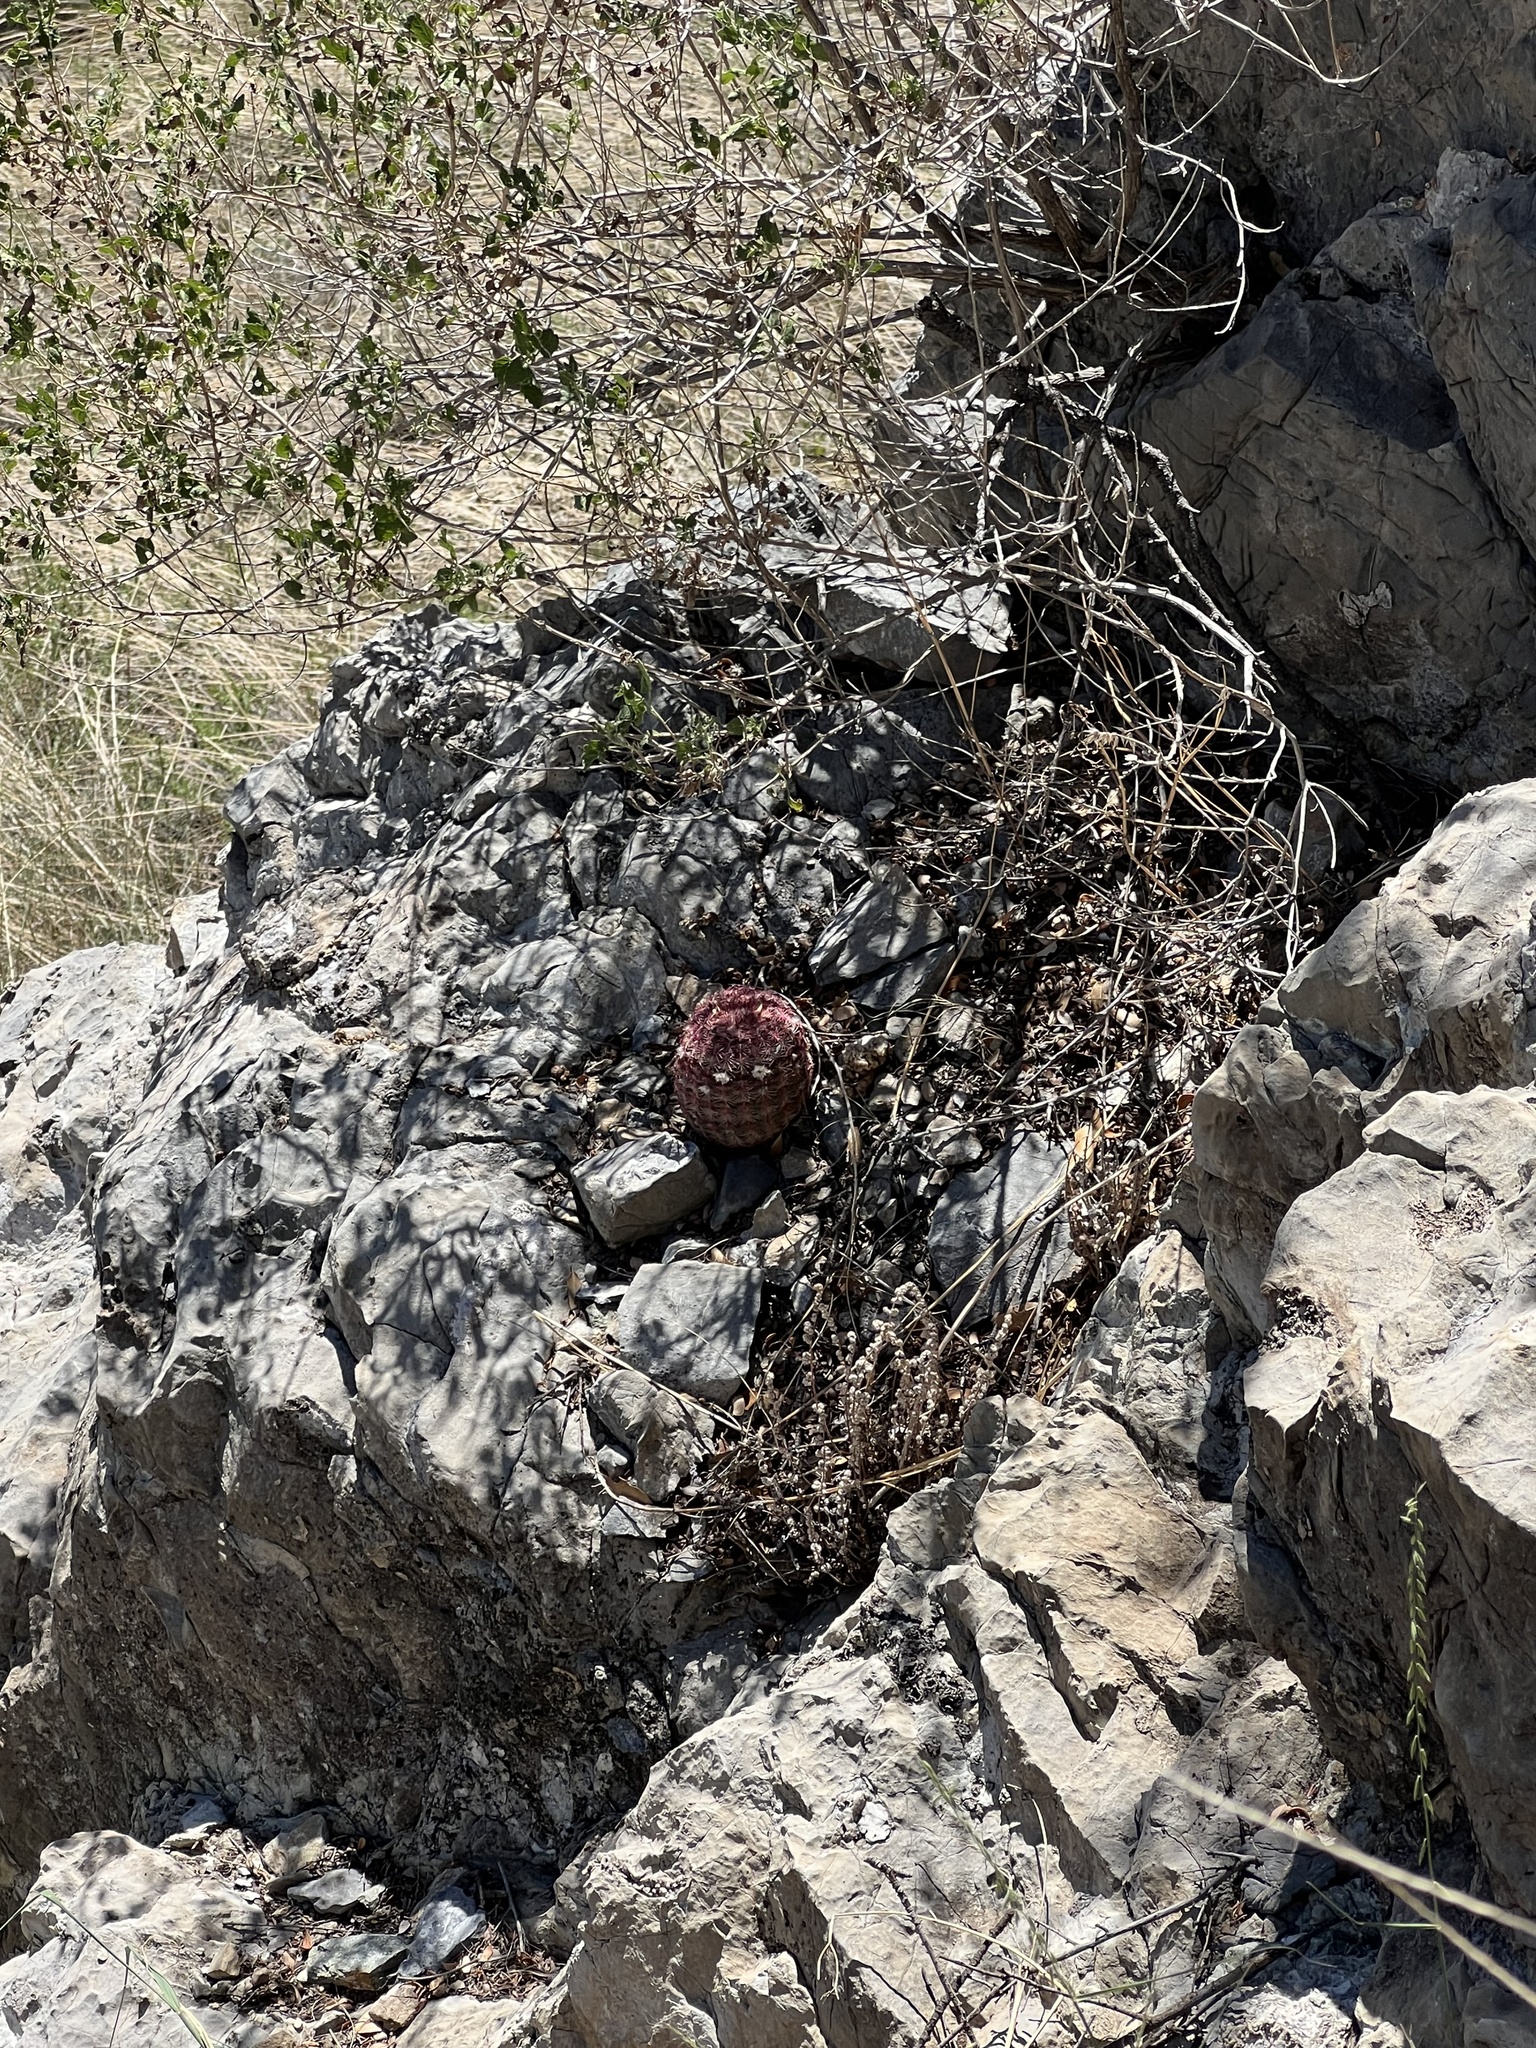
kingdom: Plantae
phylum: Tracheophyta
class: Magnoliopsida
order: Caryophyllales
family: Cactaceae
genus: Echinocereus
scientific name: Echinocereus rigidissimus
